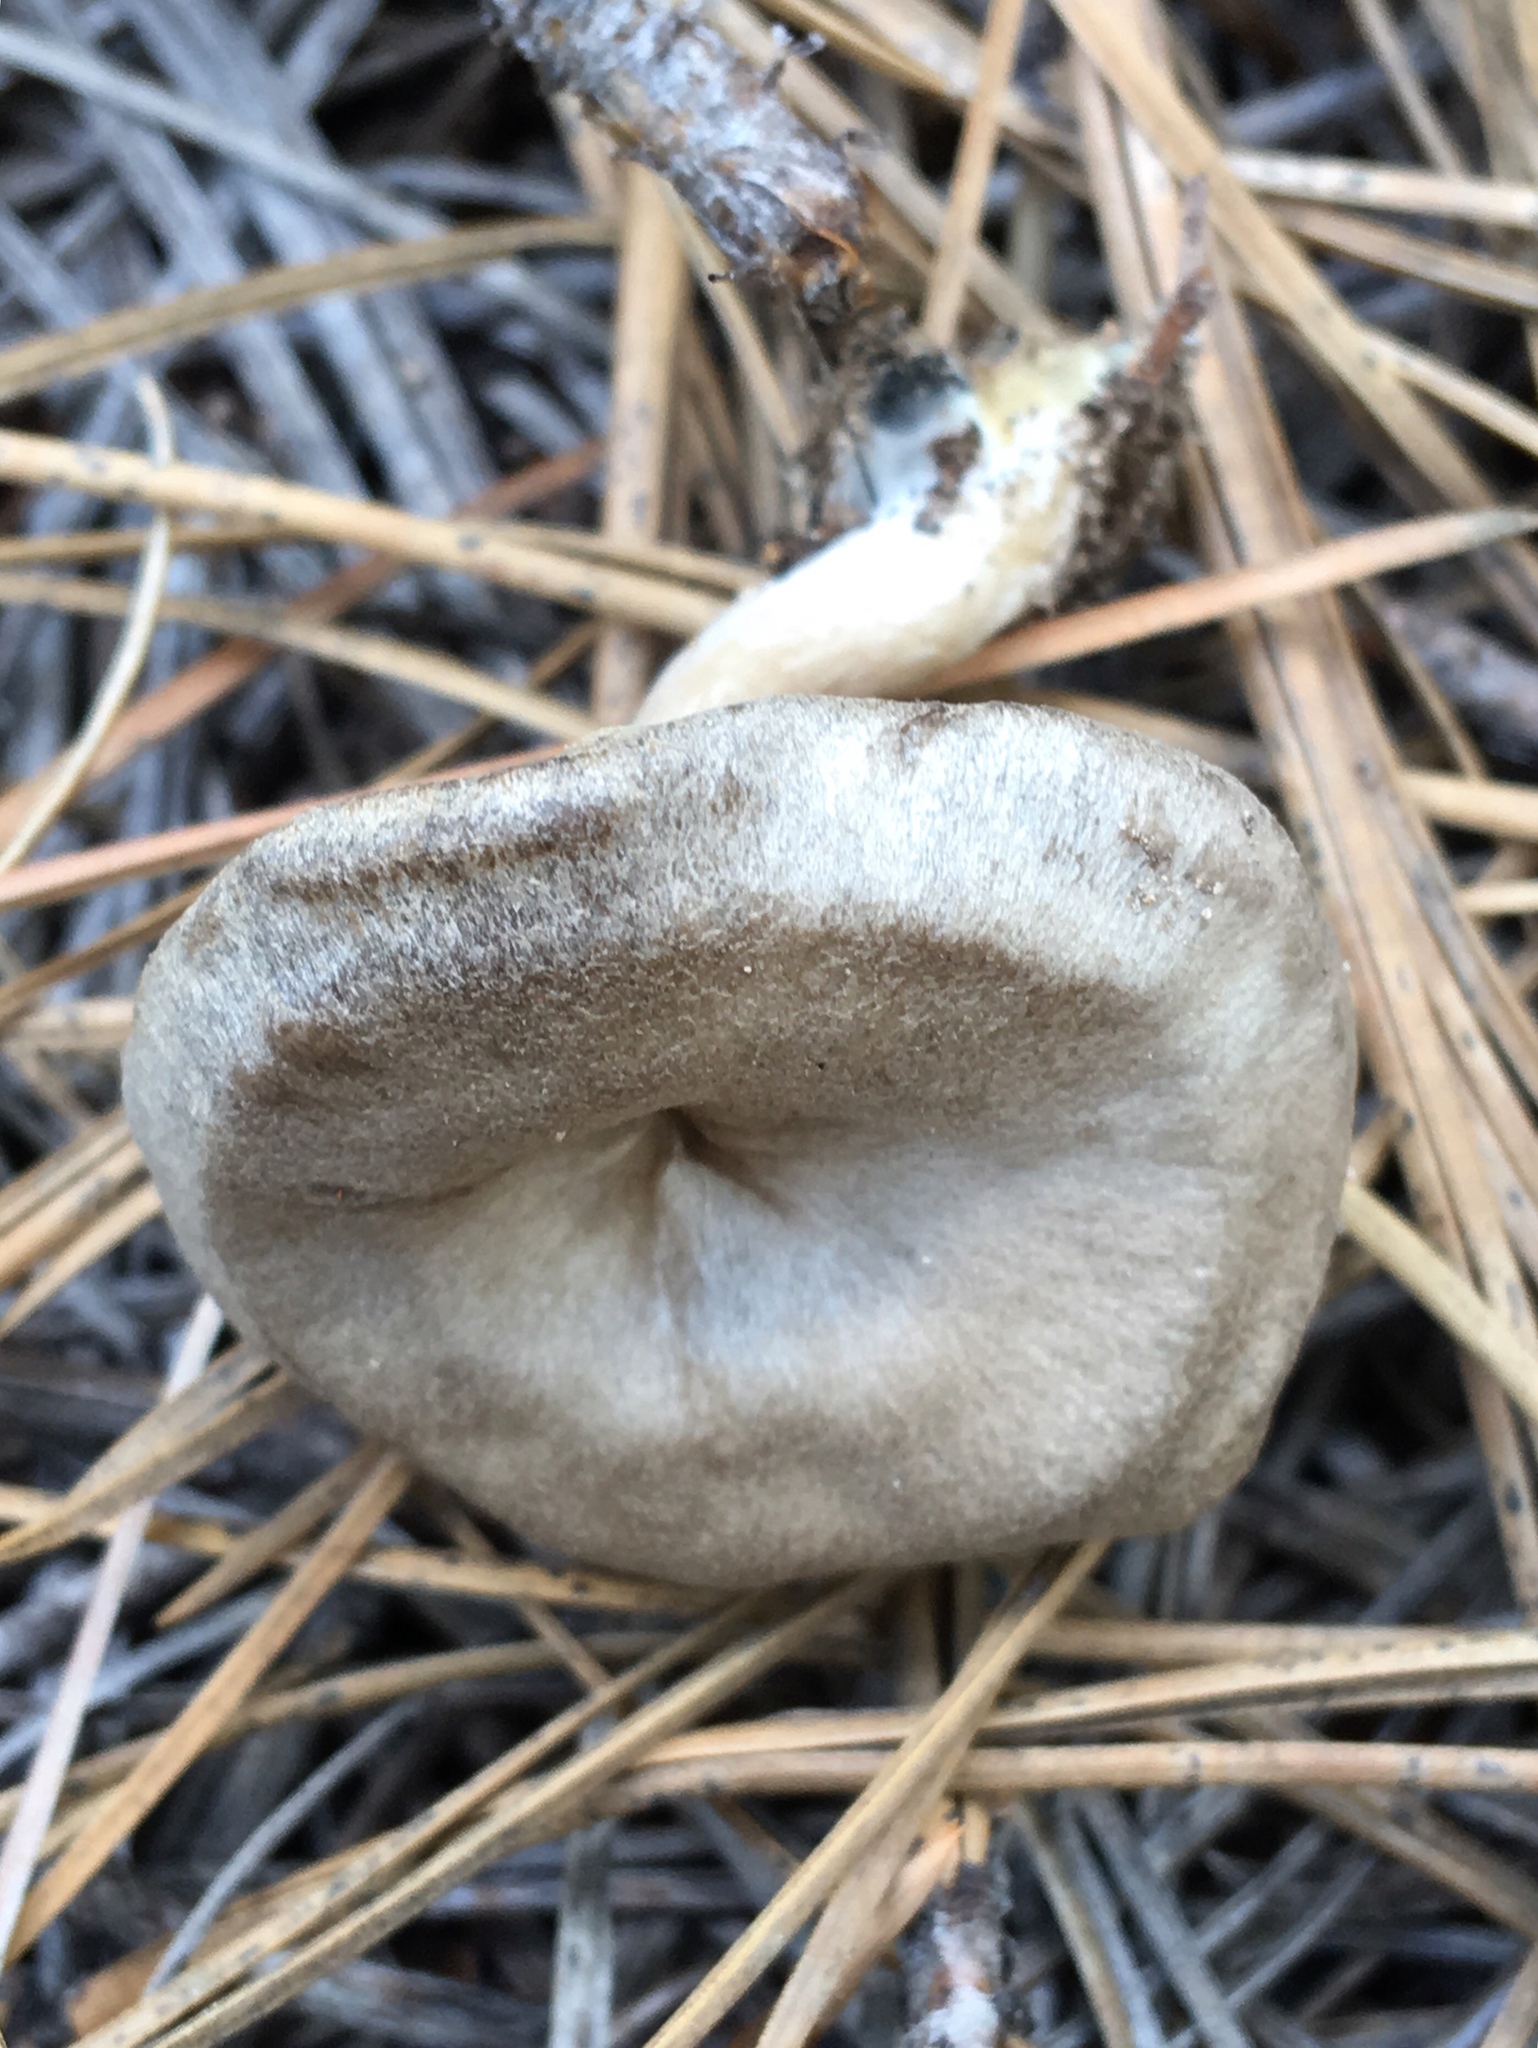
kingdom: Fungi
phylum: Basidiomycota
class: Agaricomycetes
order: Agaricales
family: Entolomataceae
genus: Entoloma
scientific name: Entoloma undatum
